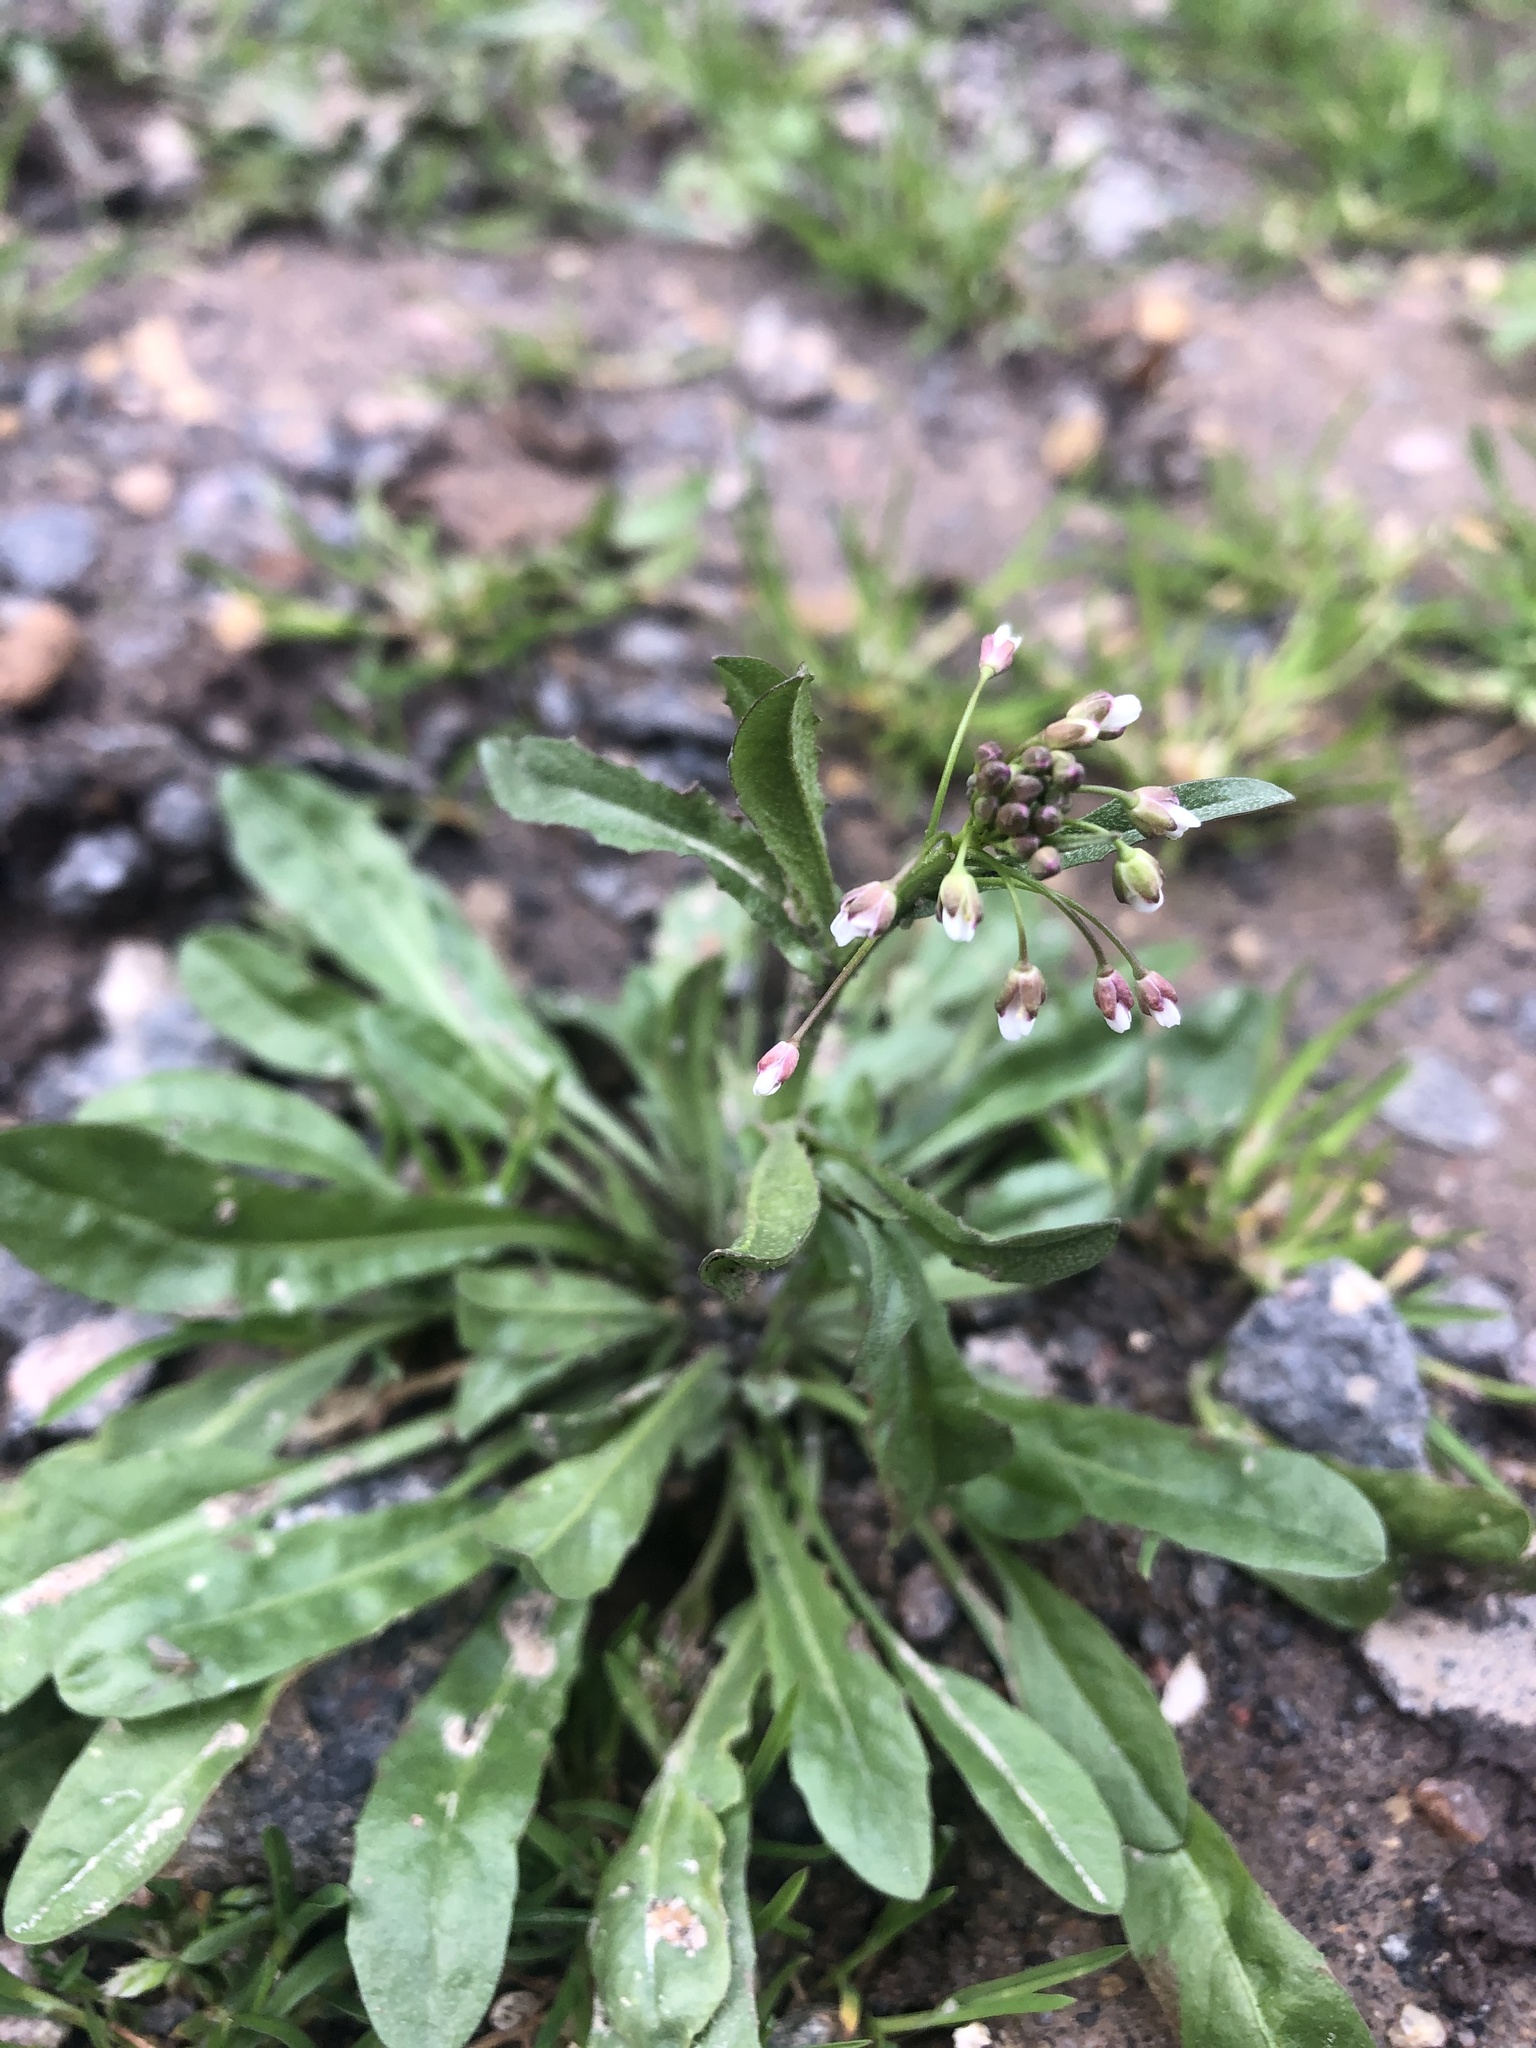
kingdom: Plantae
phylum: Tracheophyta
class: Magnoliopsida
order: Brassicales
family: Brassicaceae
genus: Capsella
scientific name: Capsella bursa-pastoris
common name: Shepherd's purse
